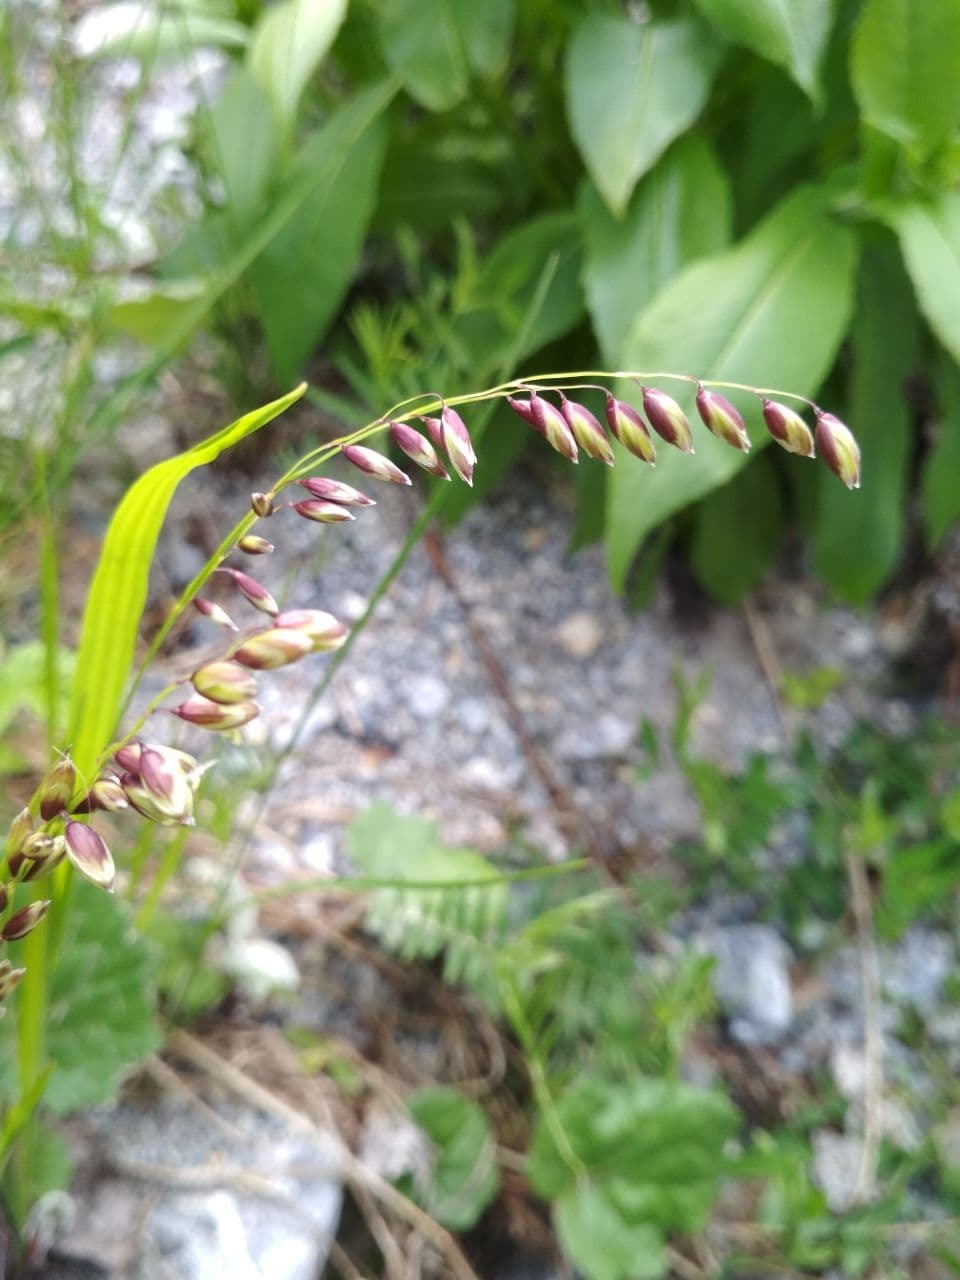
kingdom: Plantae
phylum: Tracheophyta
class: Liliopsida
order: Poales
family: Poaceae
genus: Melica
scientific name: Melica nutans
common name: Mountain melick
